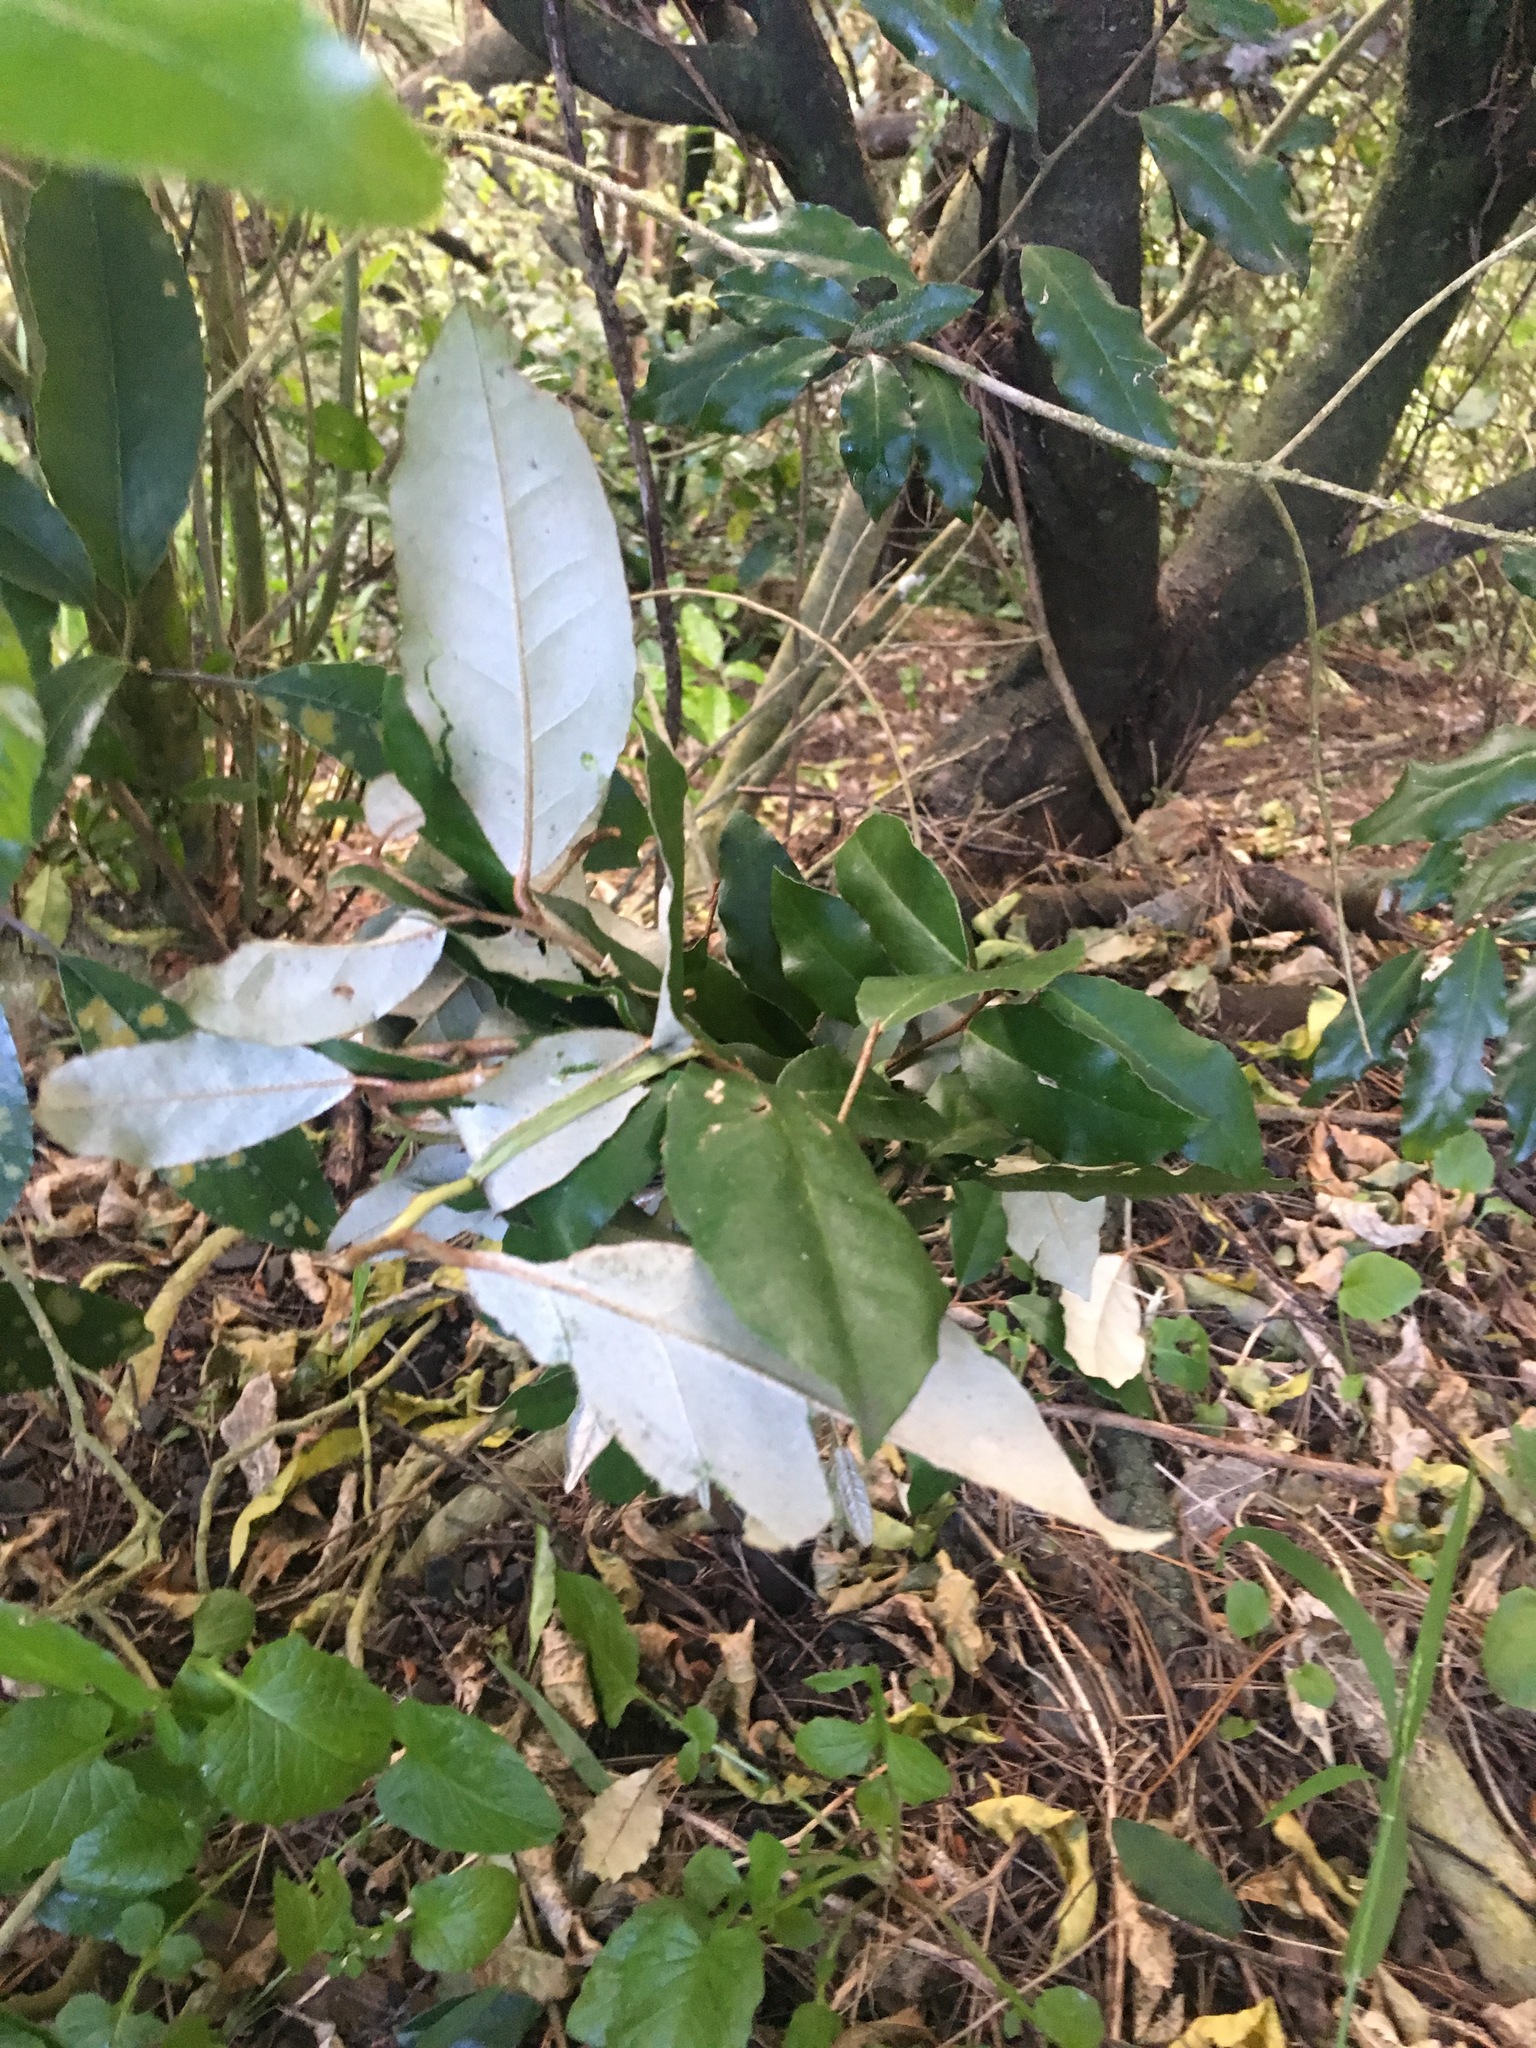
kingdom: Plantae
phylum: Tracheophyta
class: Magnoliopsida
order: Rosales
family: Elaeagnaceae
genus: Elaeagnus
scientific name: Elaeagnus reflexa
